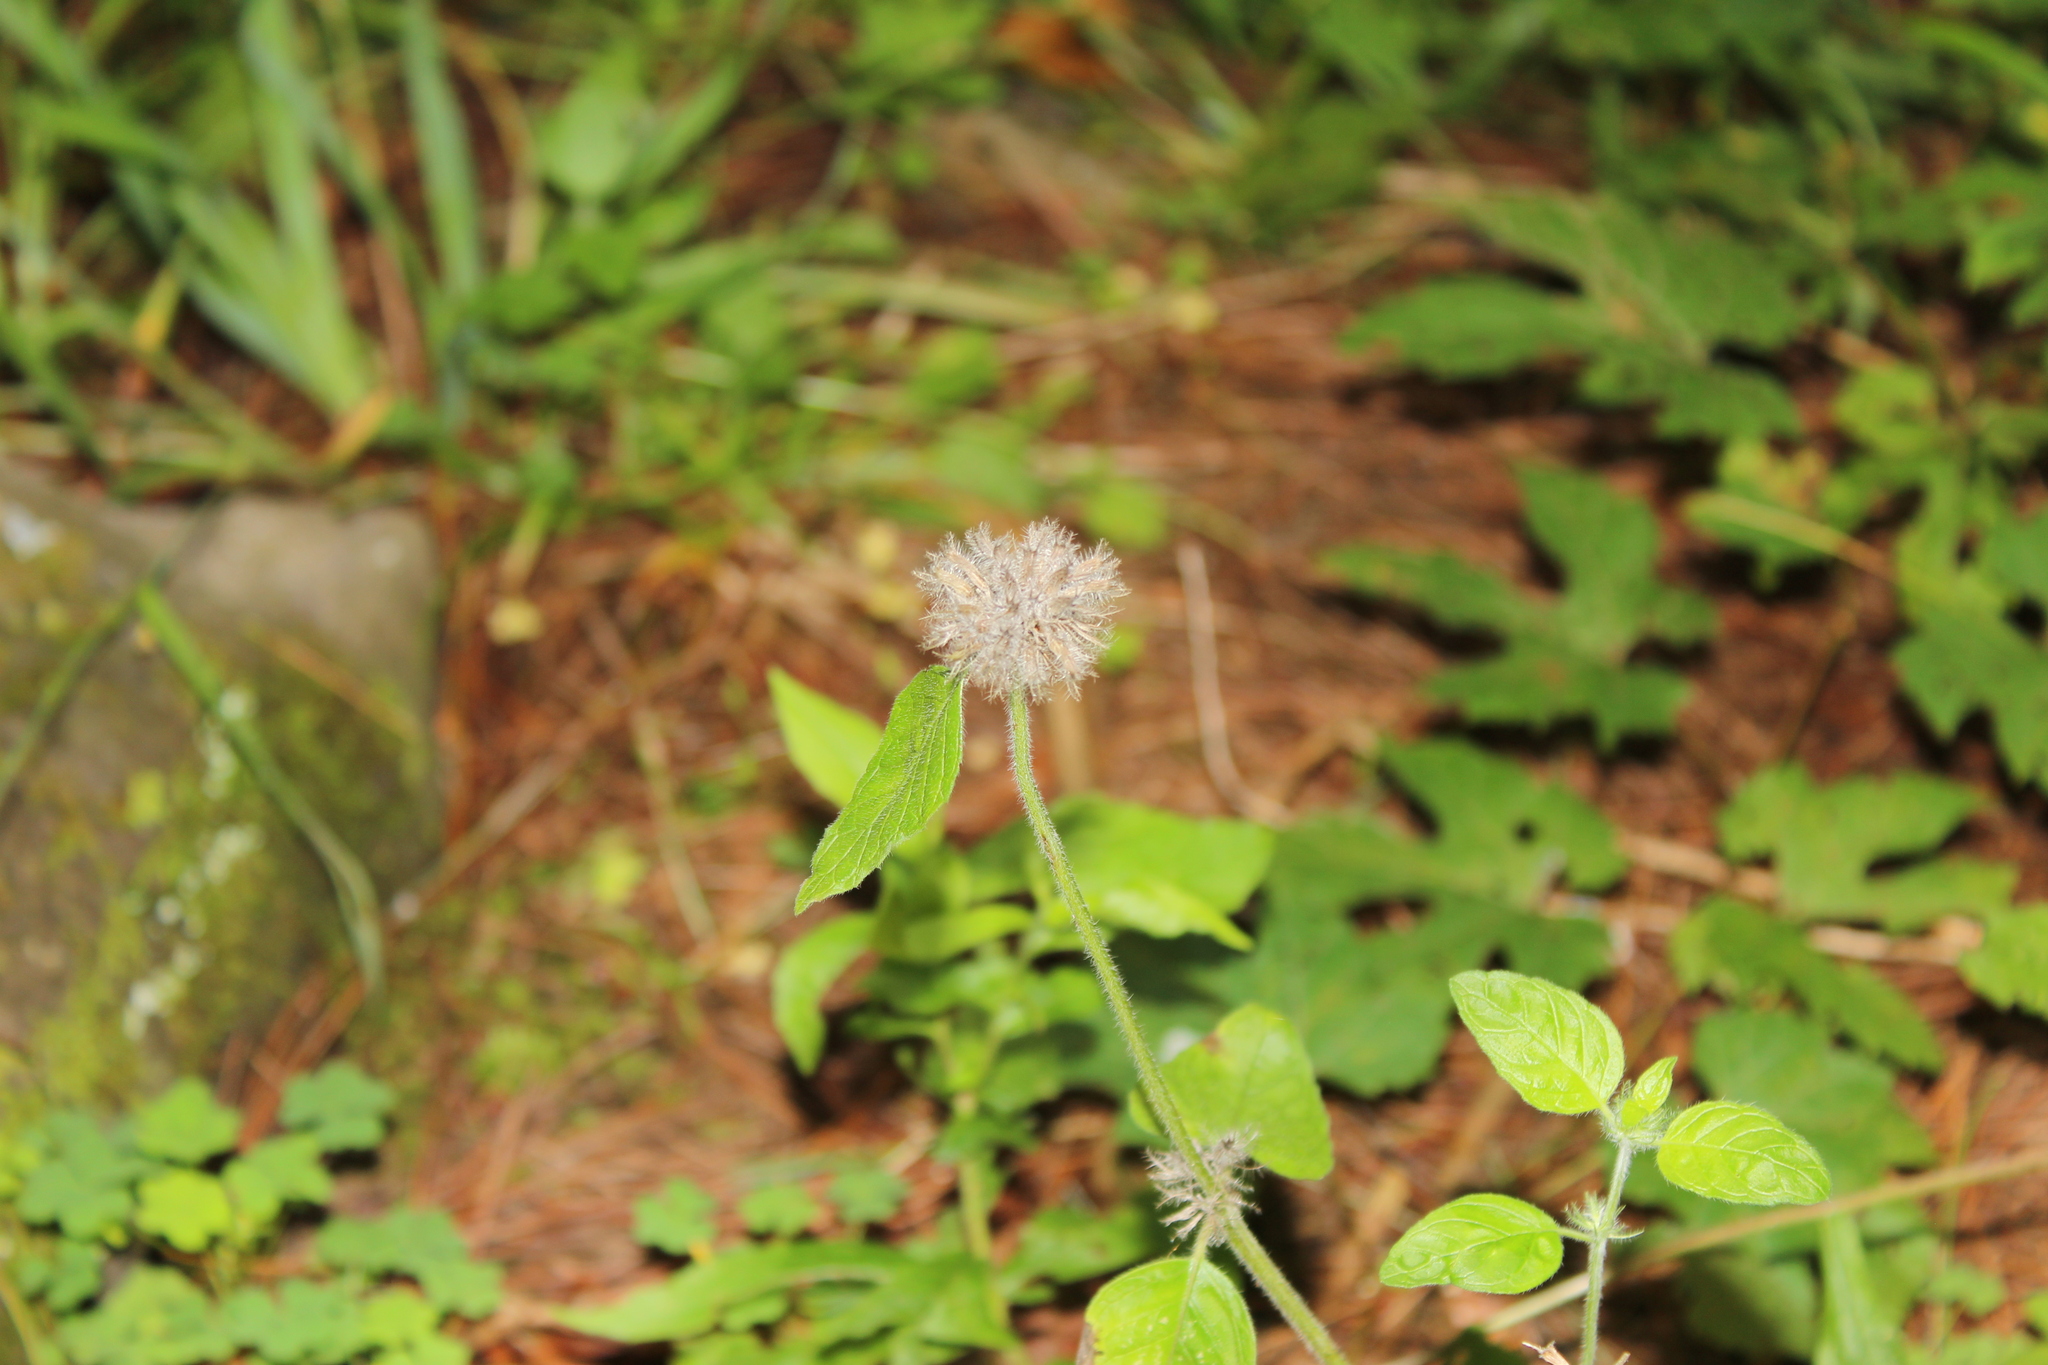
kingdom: Plantae
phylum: Tracheophyta
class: Magnoliopsida
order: Lamiales
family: Lamiaceae
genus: Clinopodium
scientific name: Clinopodium vulgare
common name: Wild basil
